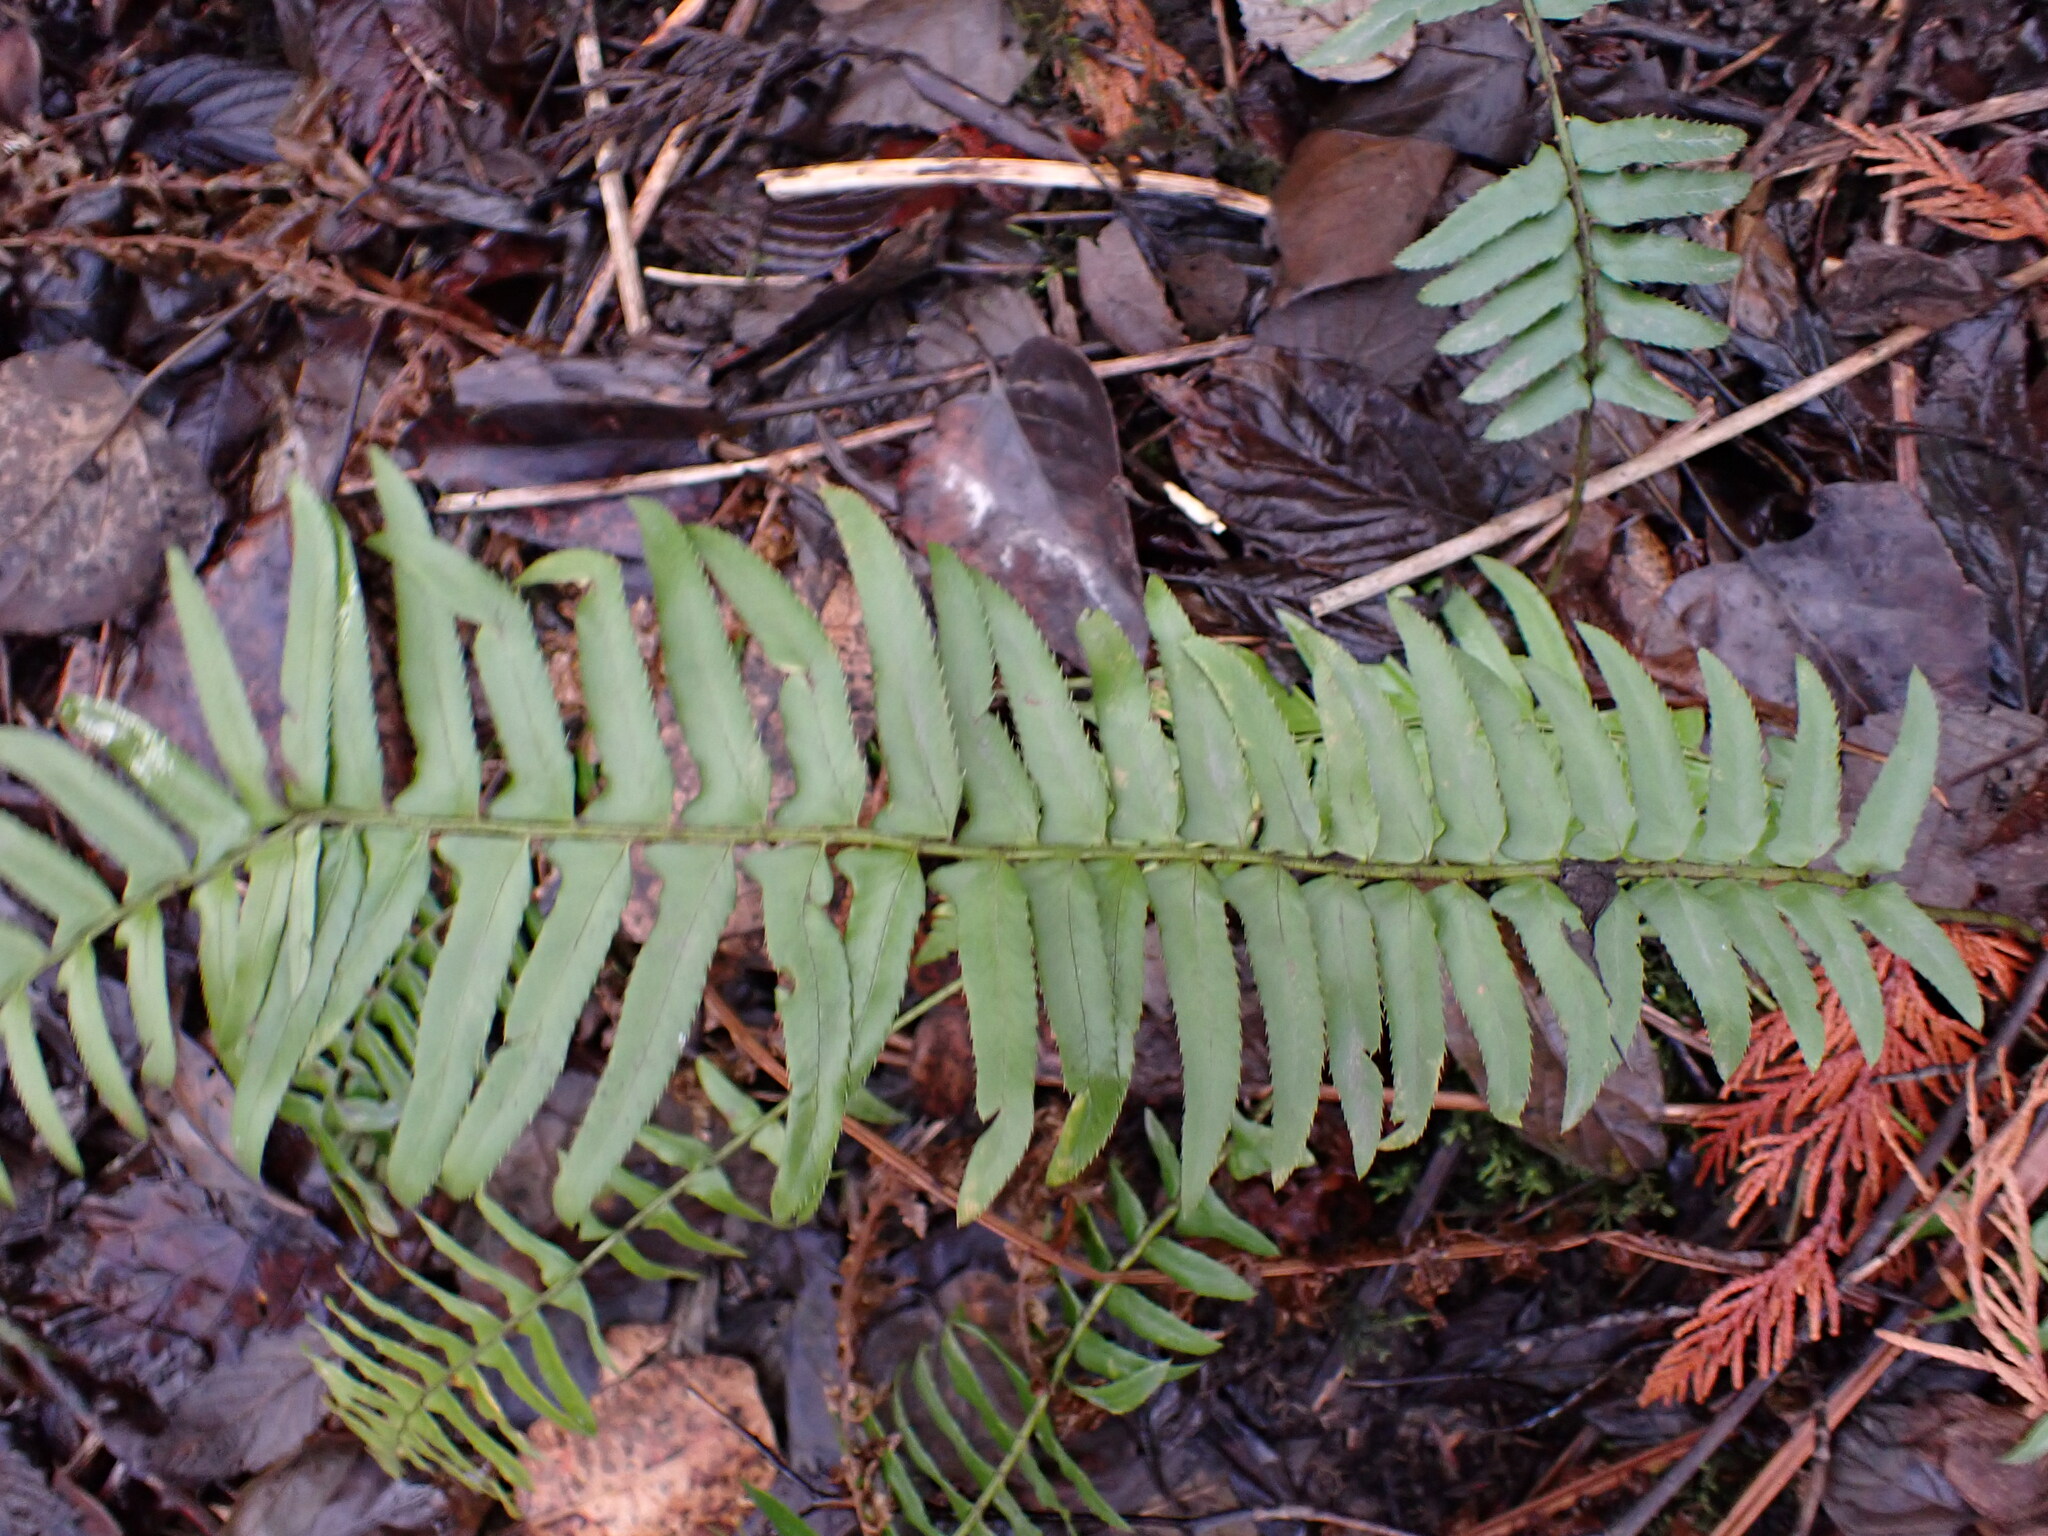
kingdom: Plantae
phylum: Tracheophyta
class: Polypodiopsida
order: Polypodiales
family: Dryopteridaceae
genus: Polystichum
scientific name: Polystichum munitum
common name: Western sword-fern
